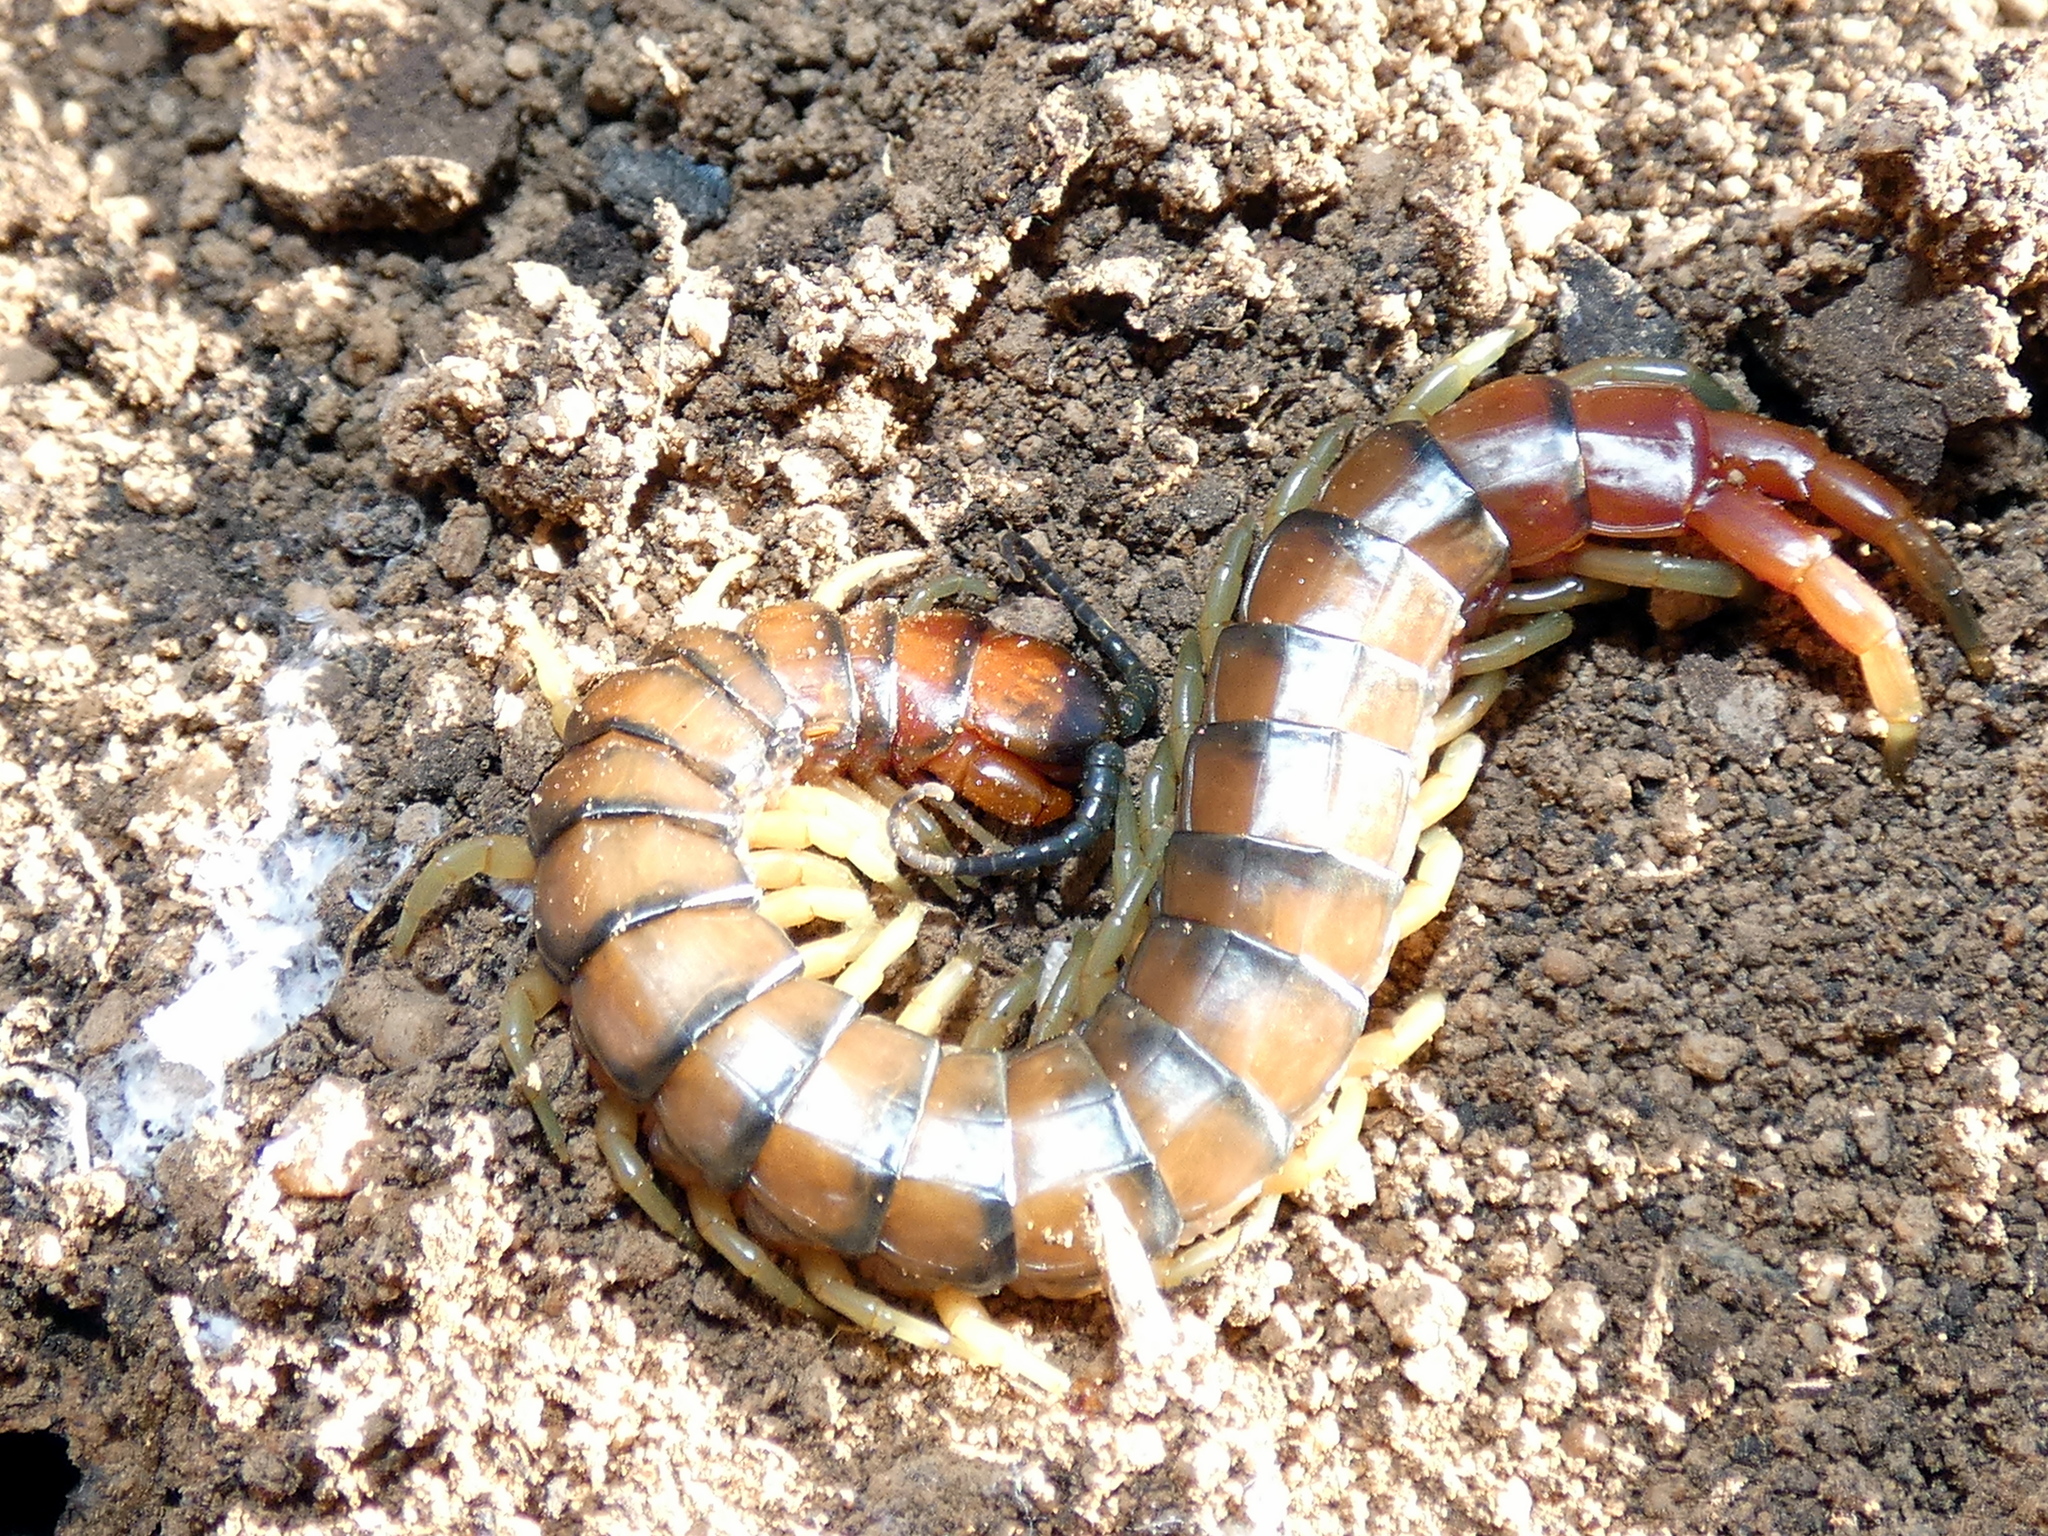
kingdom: Animalia
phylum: Arthropoda
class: Chilopoda
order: Scolopendromorpha
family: Scolopendridae
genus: Cormocephalus
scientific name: Cormocephalus aurantiipes
